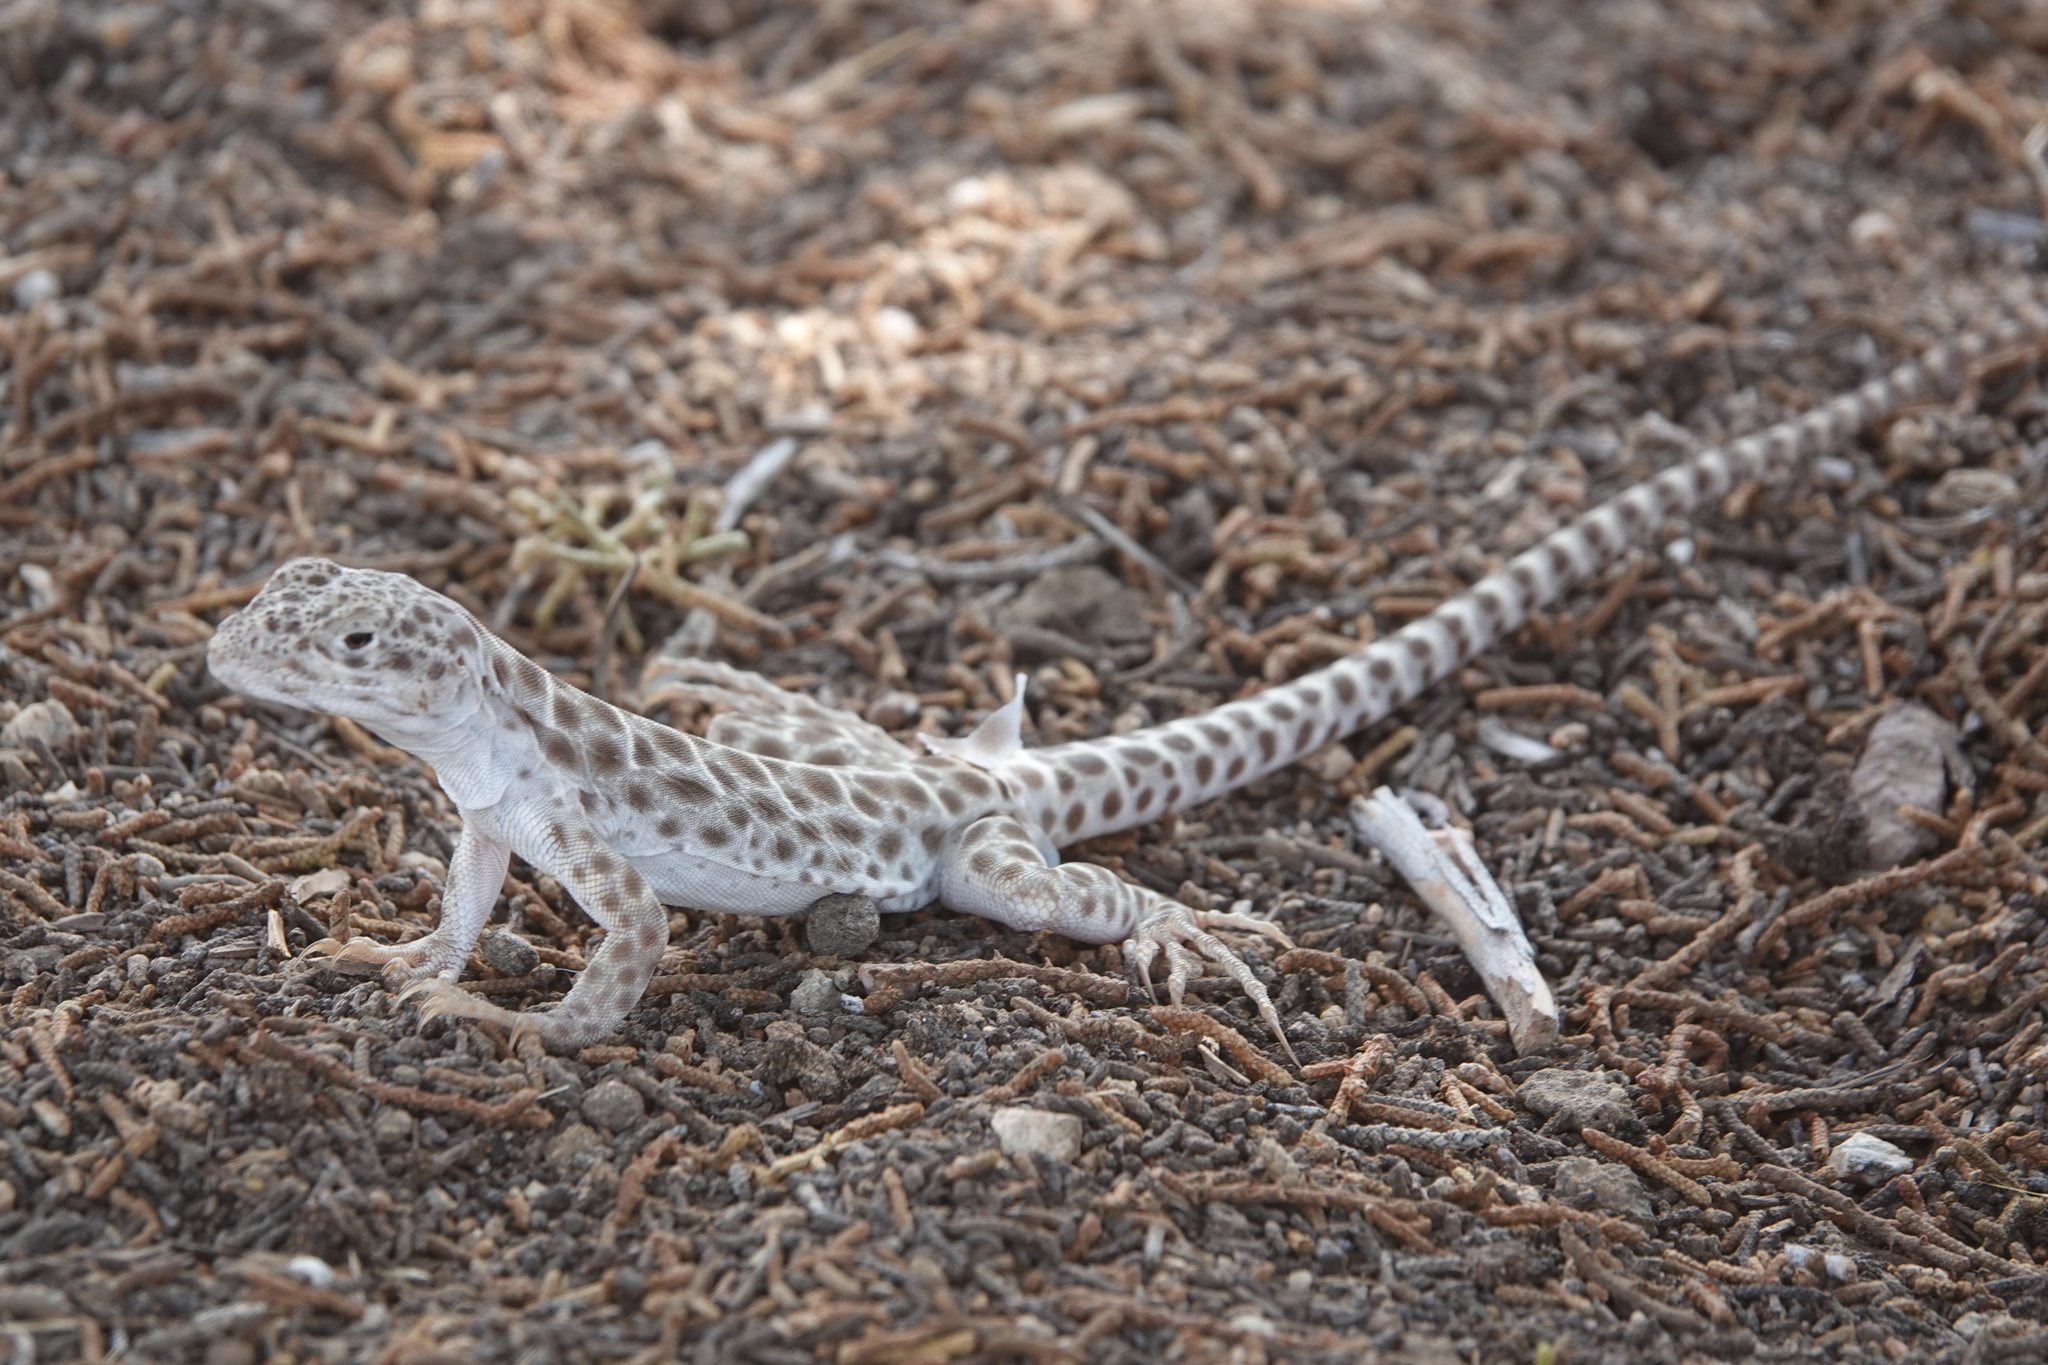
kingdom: Animalia
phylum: Chordata
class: Squamata
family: Crotaphytidae
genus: Gambelia
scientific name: Gambelia wislizenii
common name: Longnose leopard lizard
